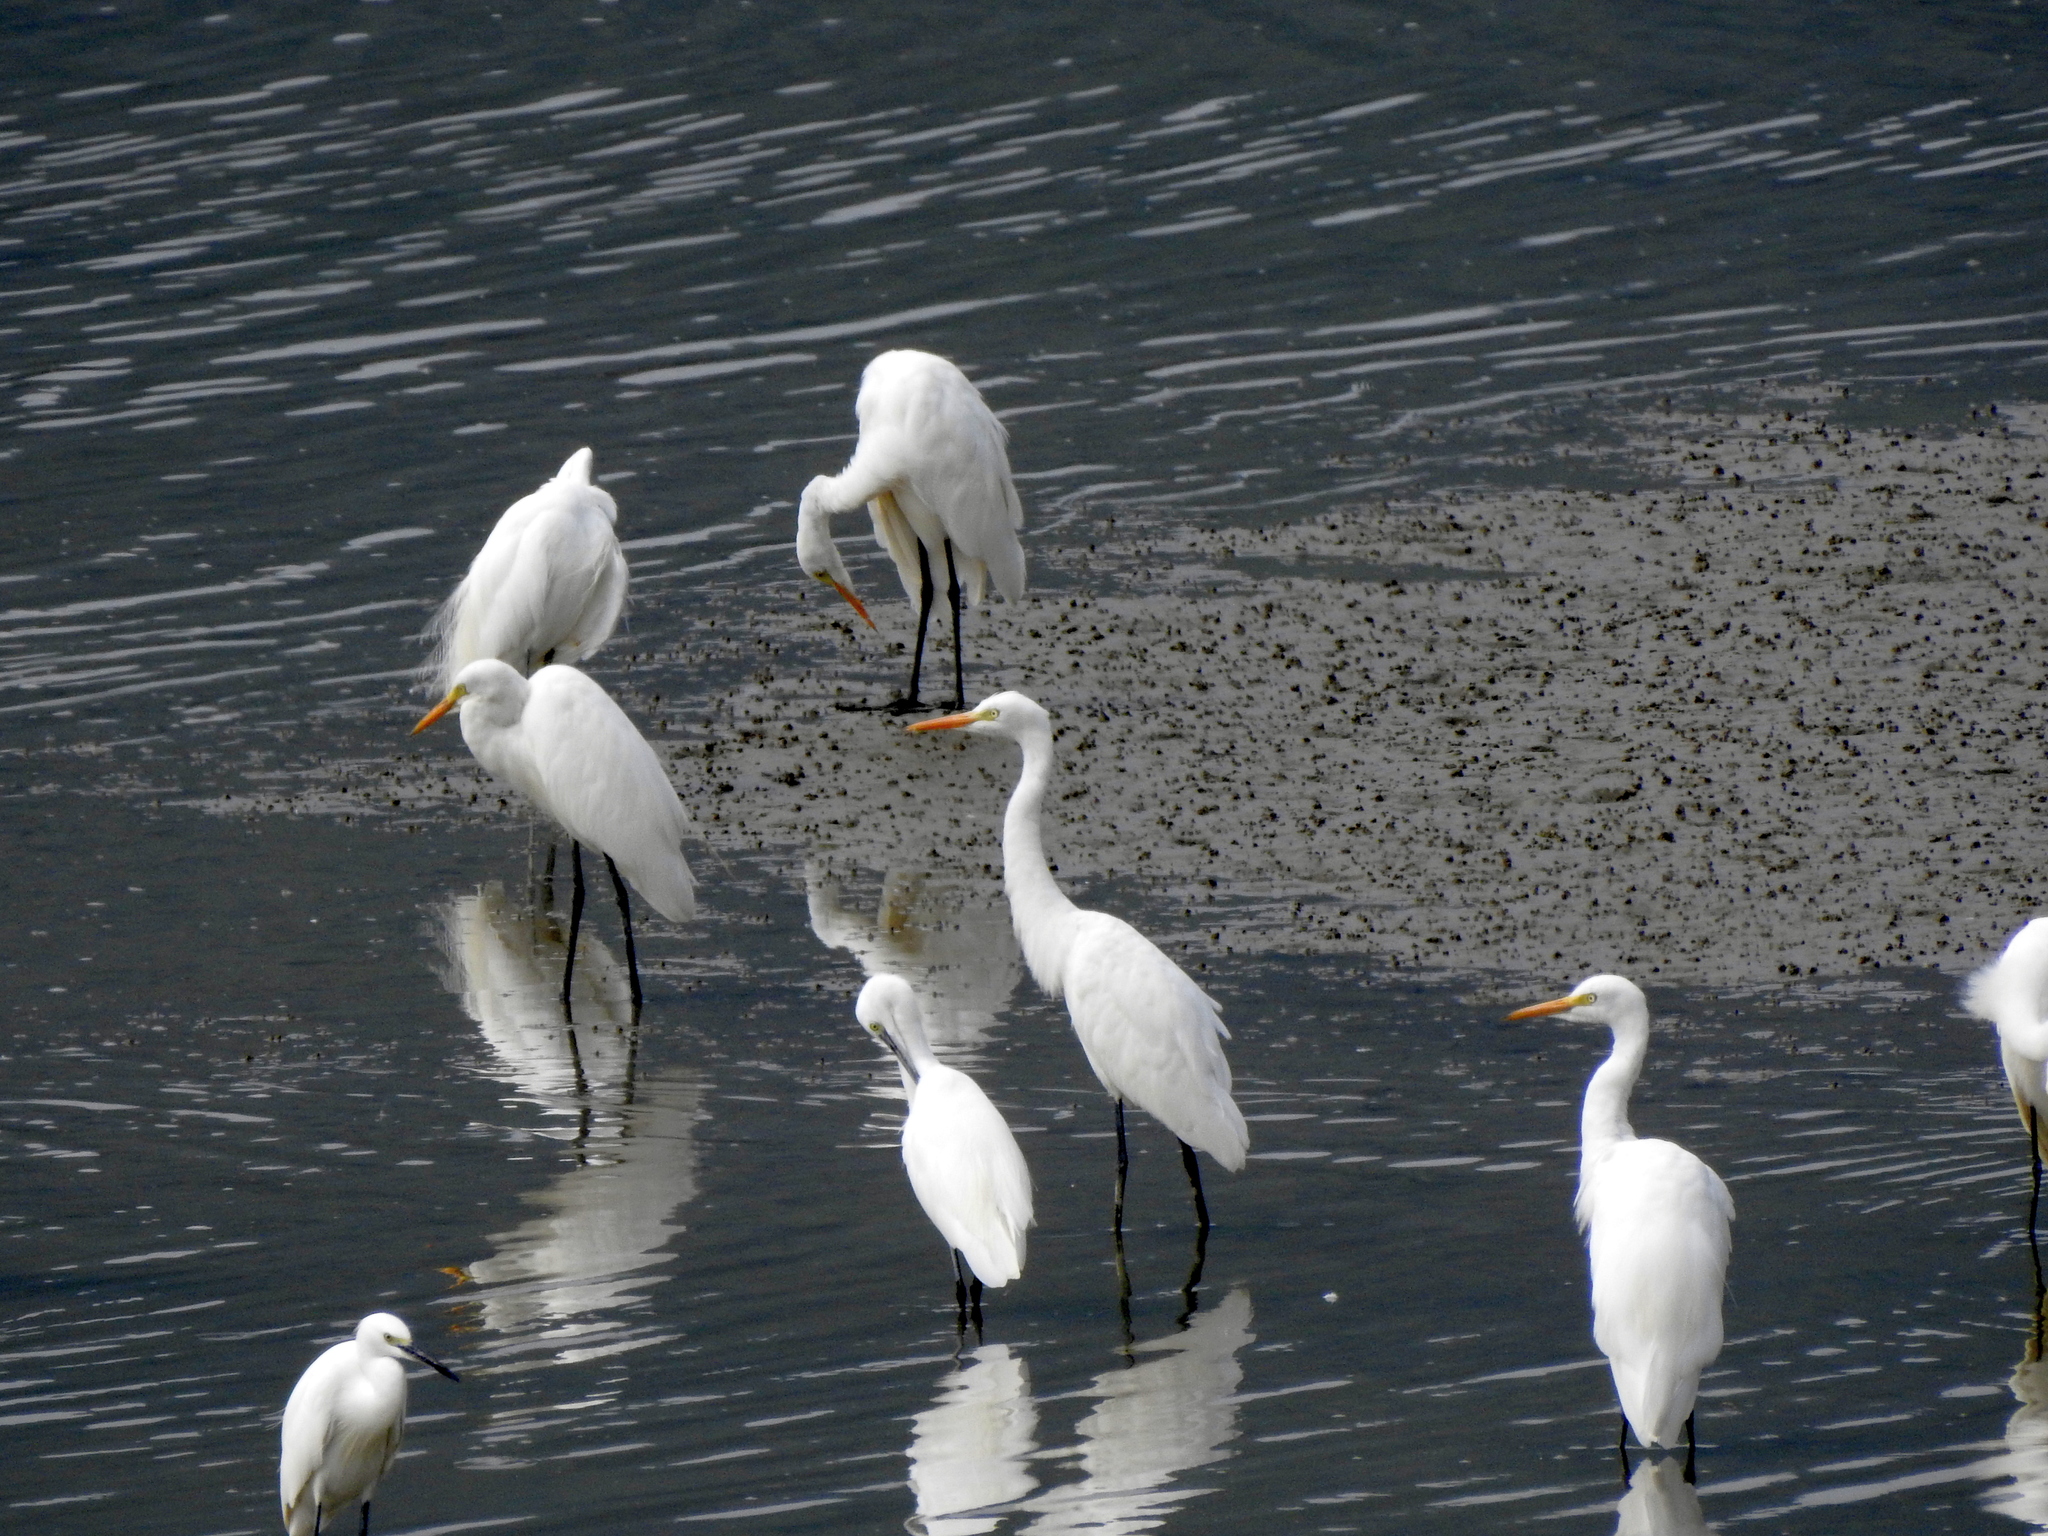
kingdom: Animalia
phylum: Chordata
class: Aves
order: Pelecaniformes
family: Ardeidae
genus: Egretta
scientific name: Egretta intermedia
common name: Intermediate egret
